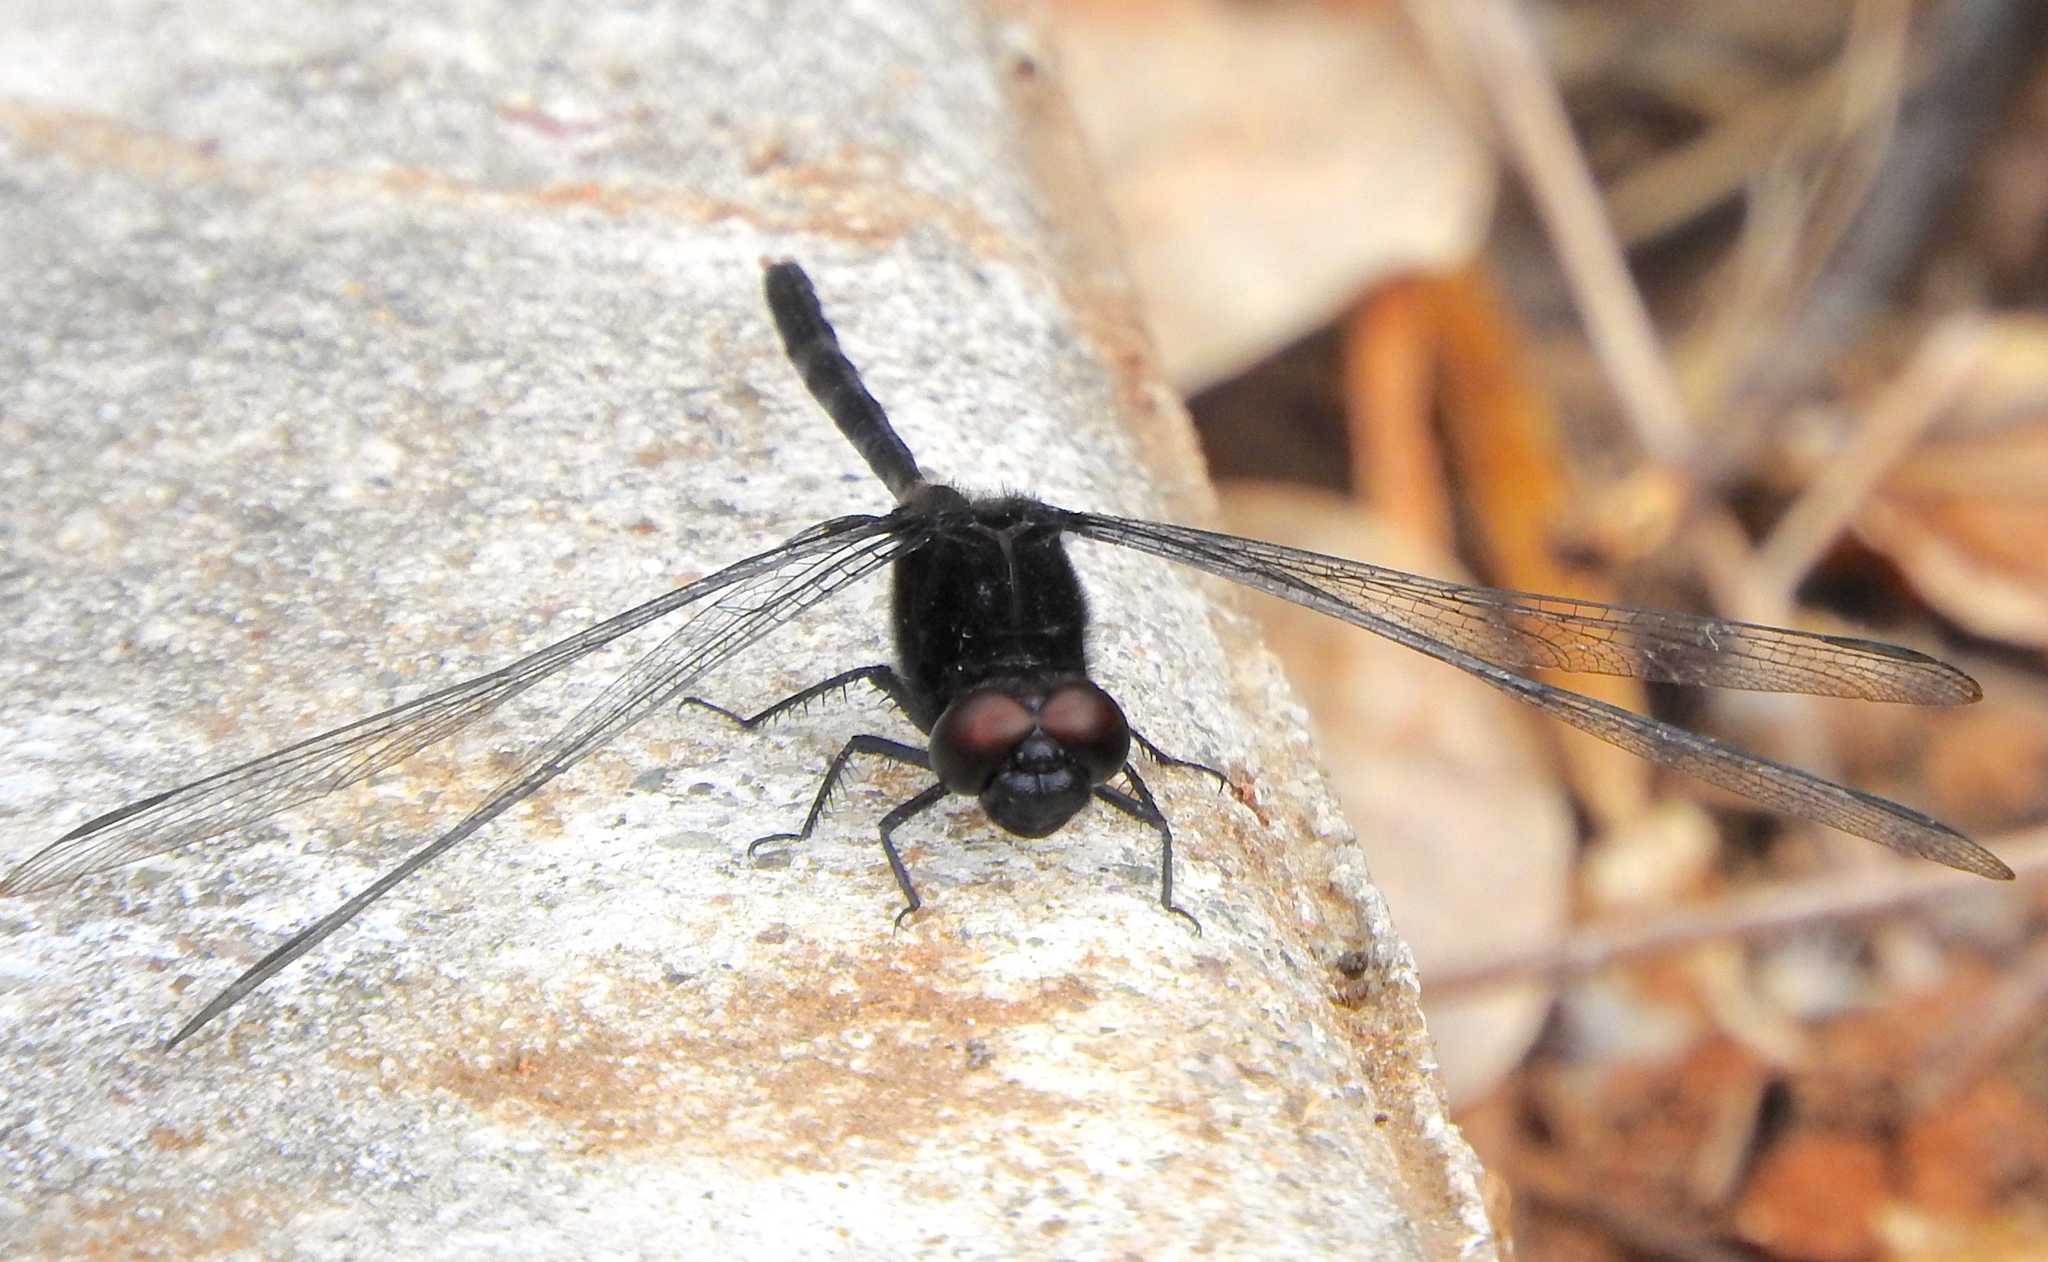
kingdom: Animalia
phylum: Arthropoda
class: Insecta
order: Odonata
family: Libellulidae
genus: Erythemis
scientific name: Erythemis plebeja
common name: Pin-tailed pondhawk
